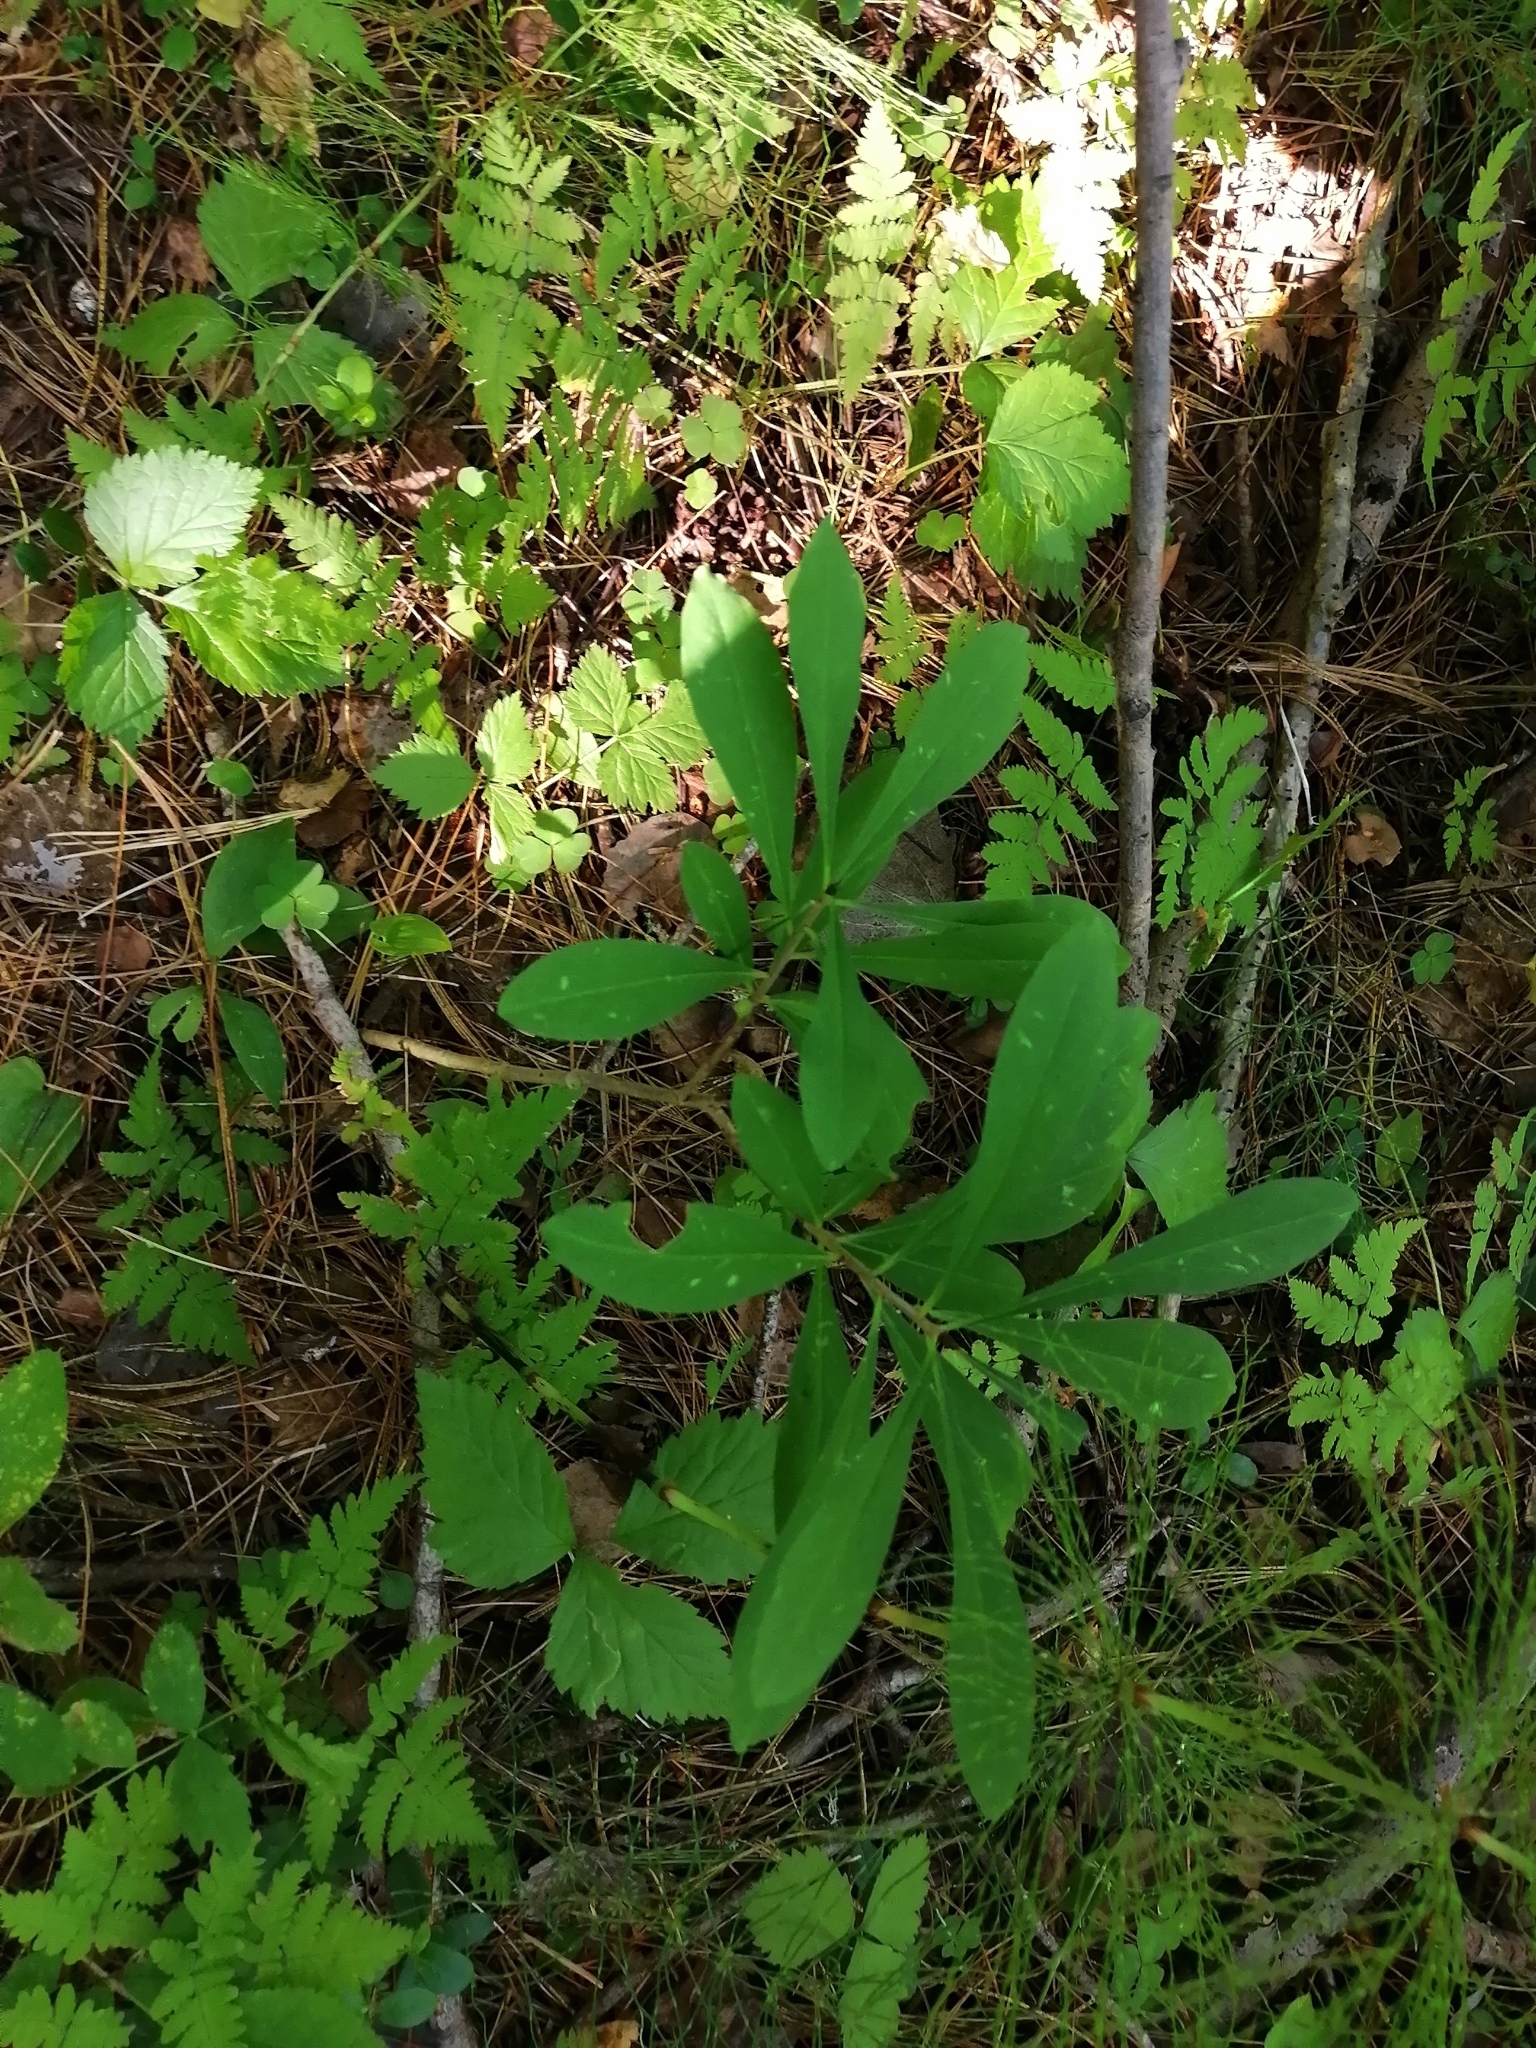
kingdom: Plantae
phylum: Tracheophyta
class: Magnoliopsida
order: Malvales
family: Thymelaeaceae
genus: Daphne
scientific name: Daphne mezereum
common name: Mezereon
